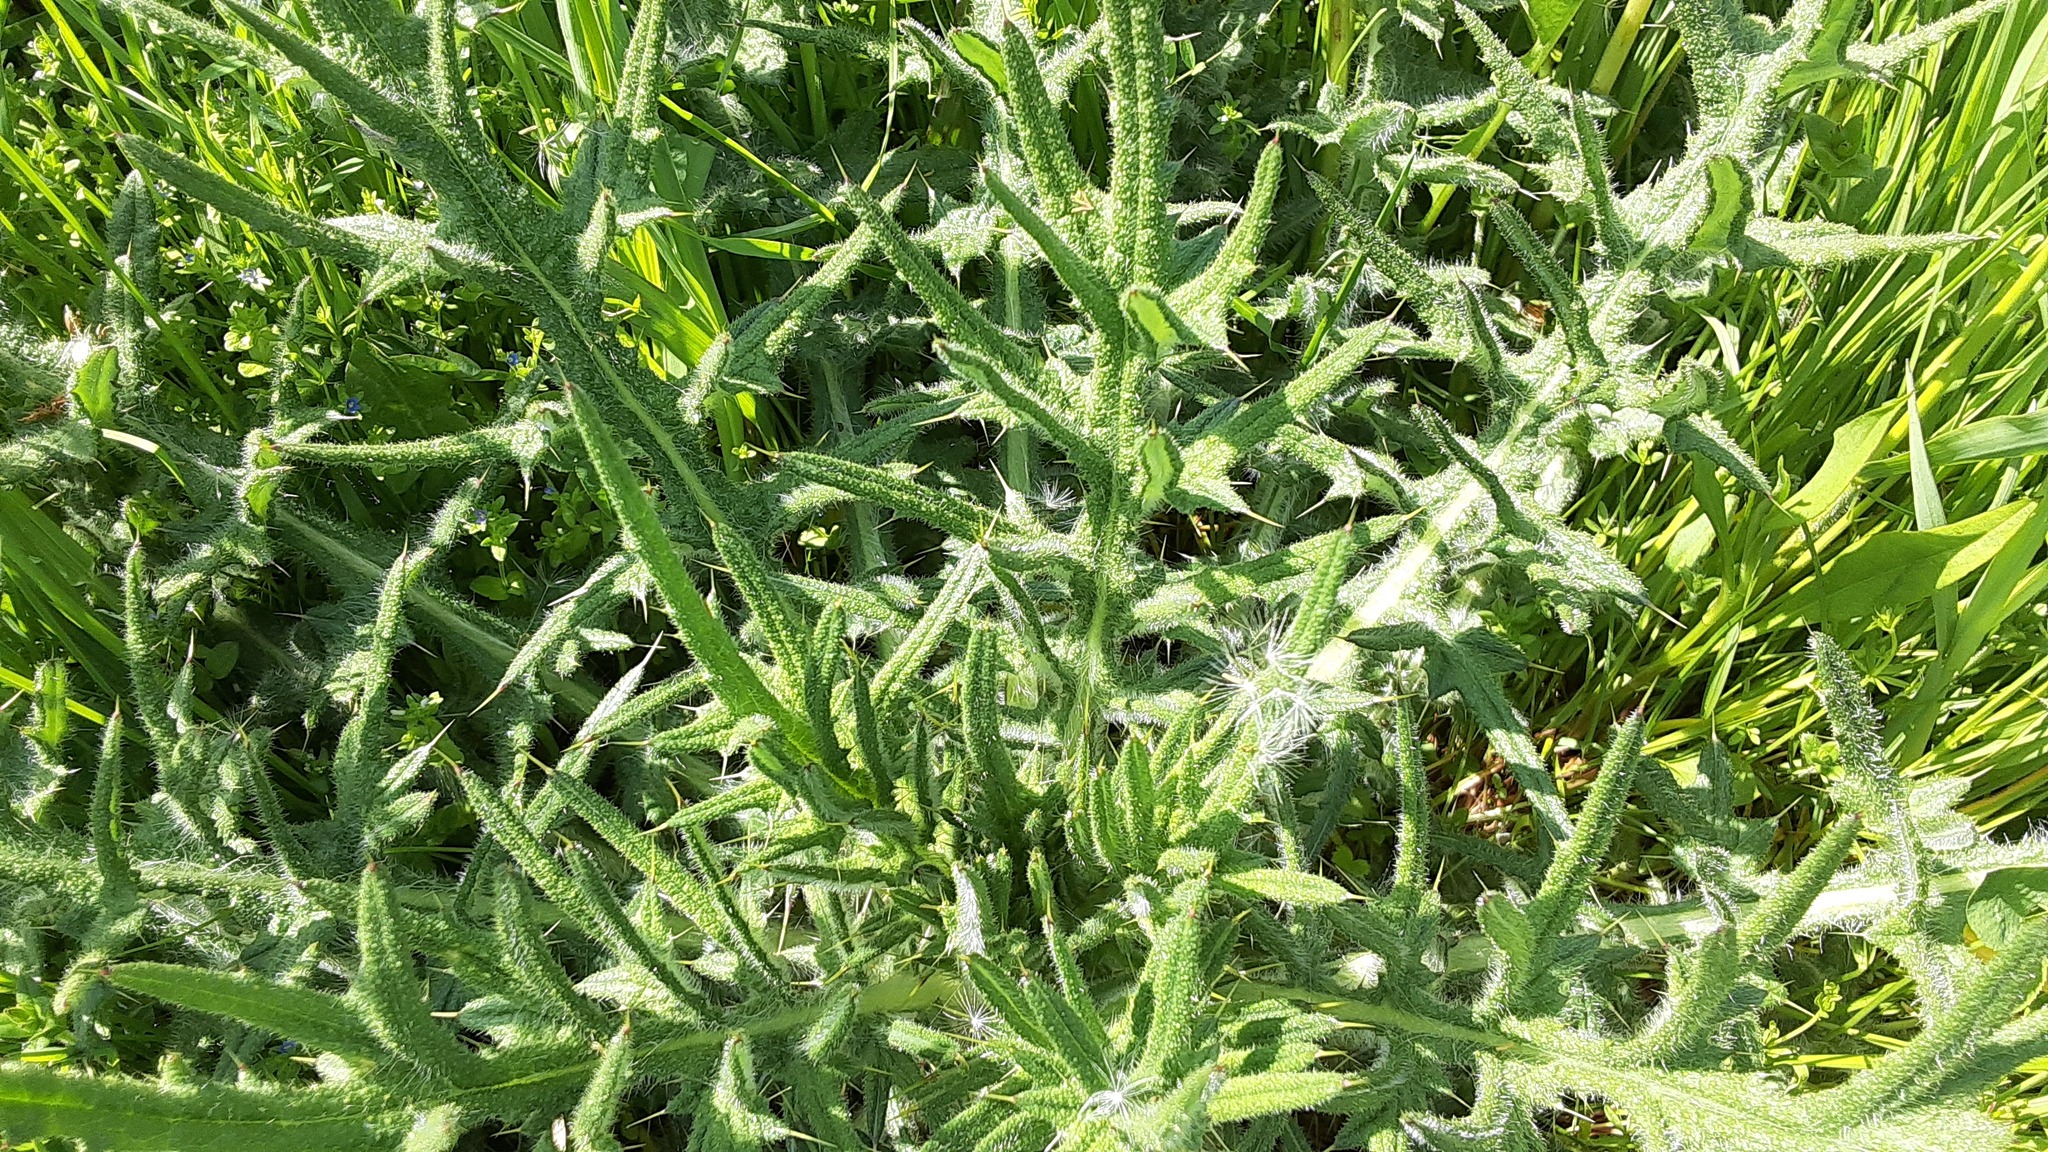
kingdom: Plantae
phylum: Tracheophyta
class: Magnoliopsida
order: Asterales
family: Asteraceae
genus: Cirsium
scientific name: Cirsium vulgare
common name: Bull thistle
